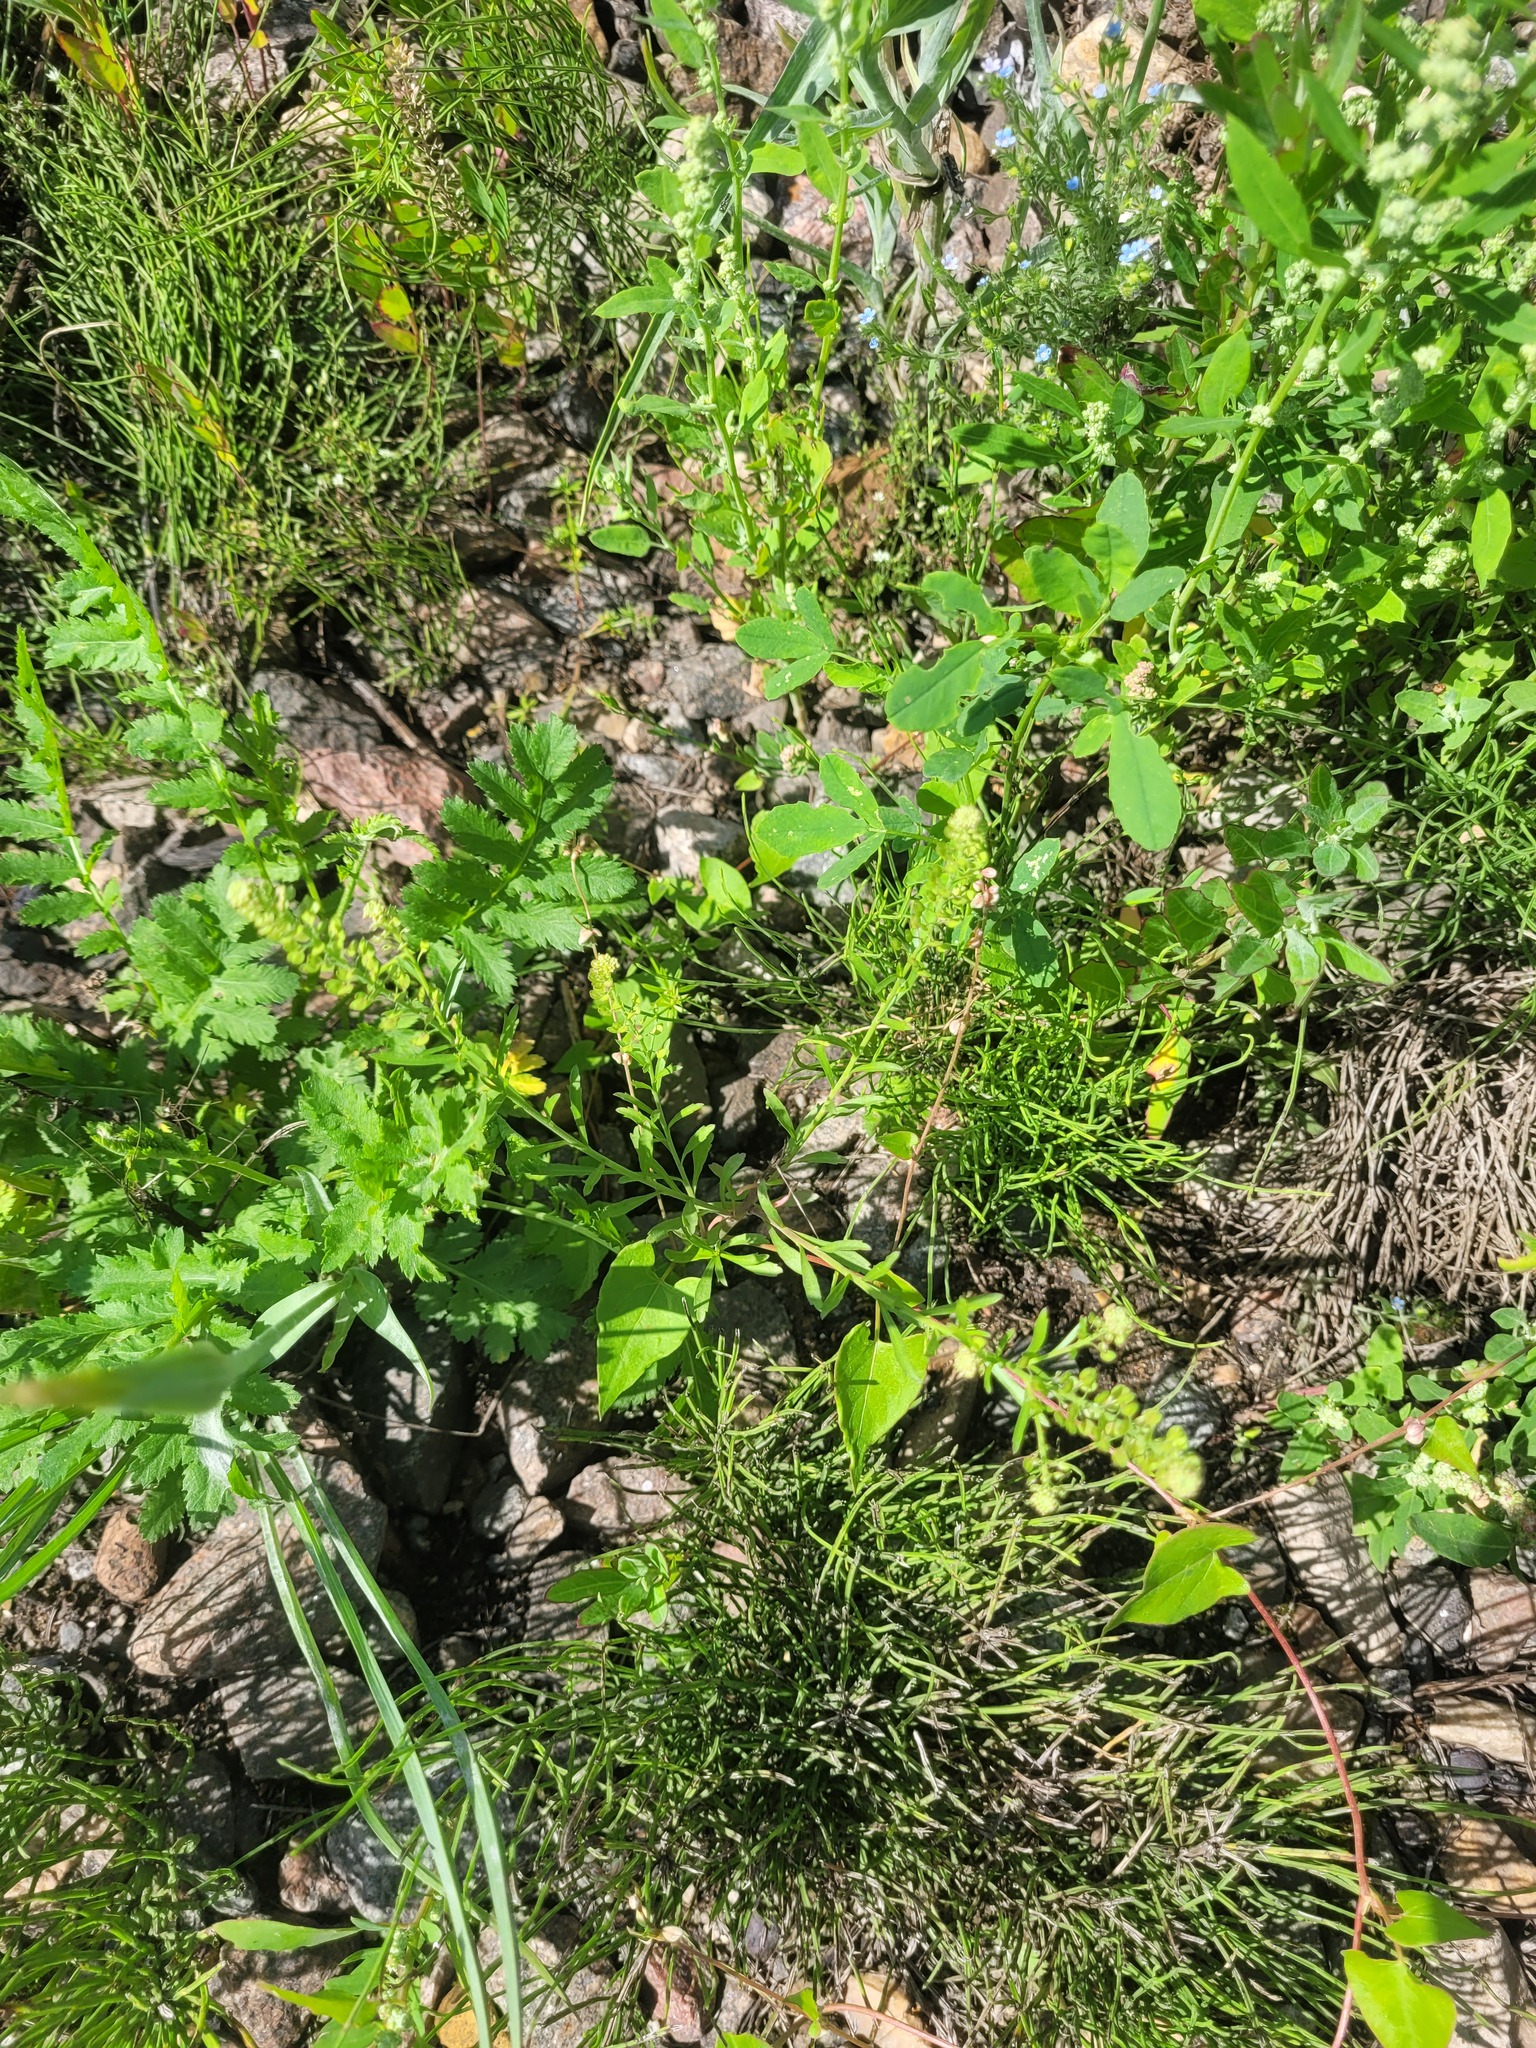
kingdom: Plantae
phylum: Tracheophyta
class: Magnoliopsida
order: Brassicales
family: Brassicaceae
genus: Lepidium
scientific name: Lepidium densiflorum
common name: Miner's pepperwort
